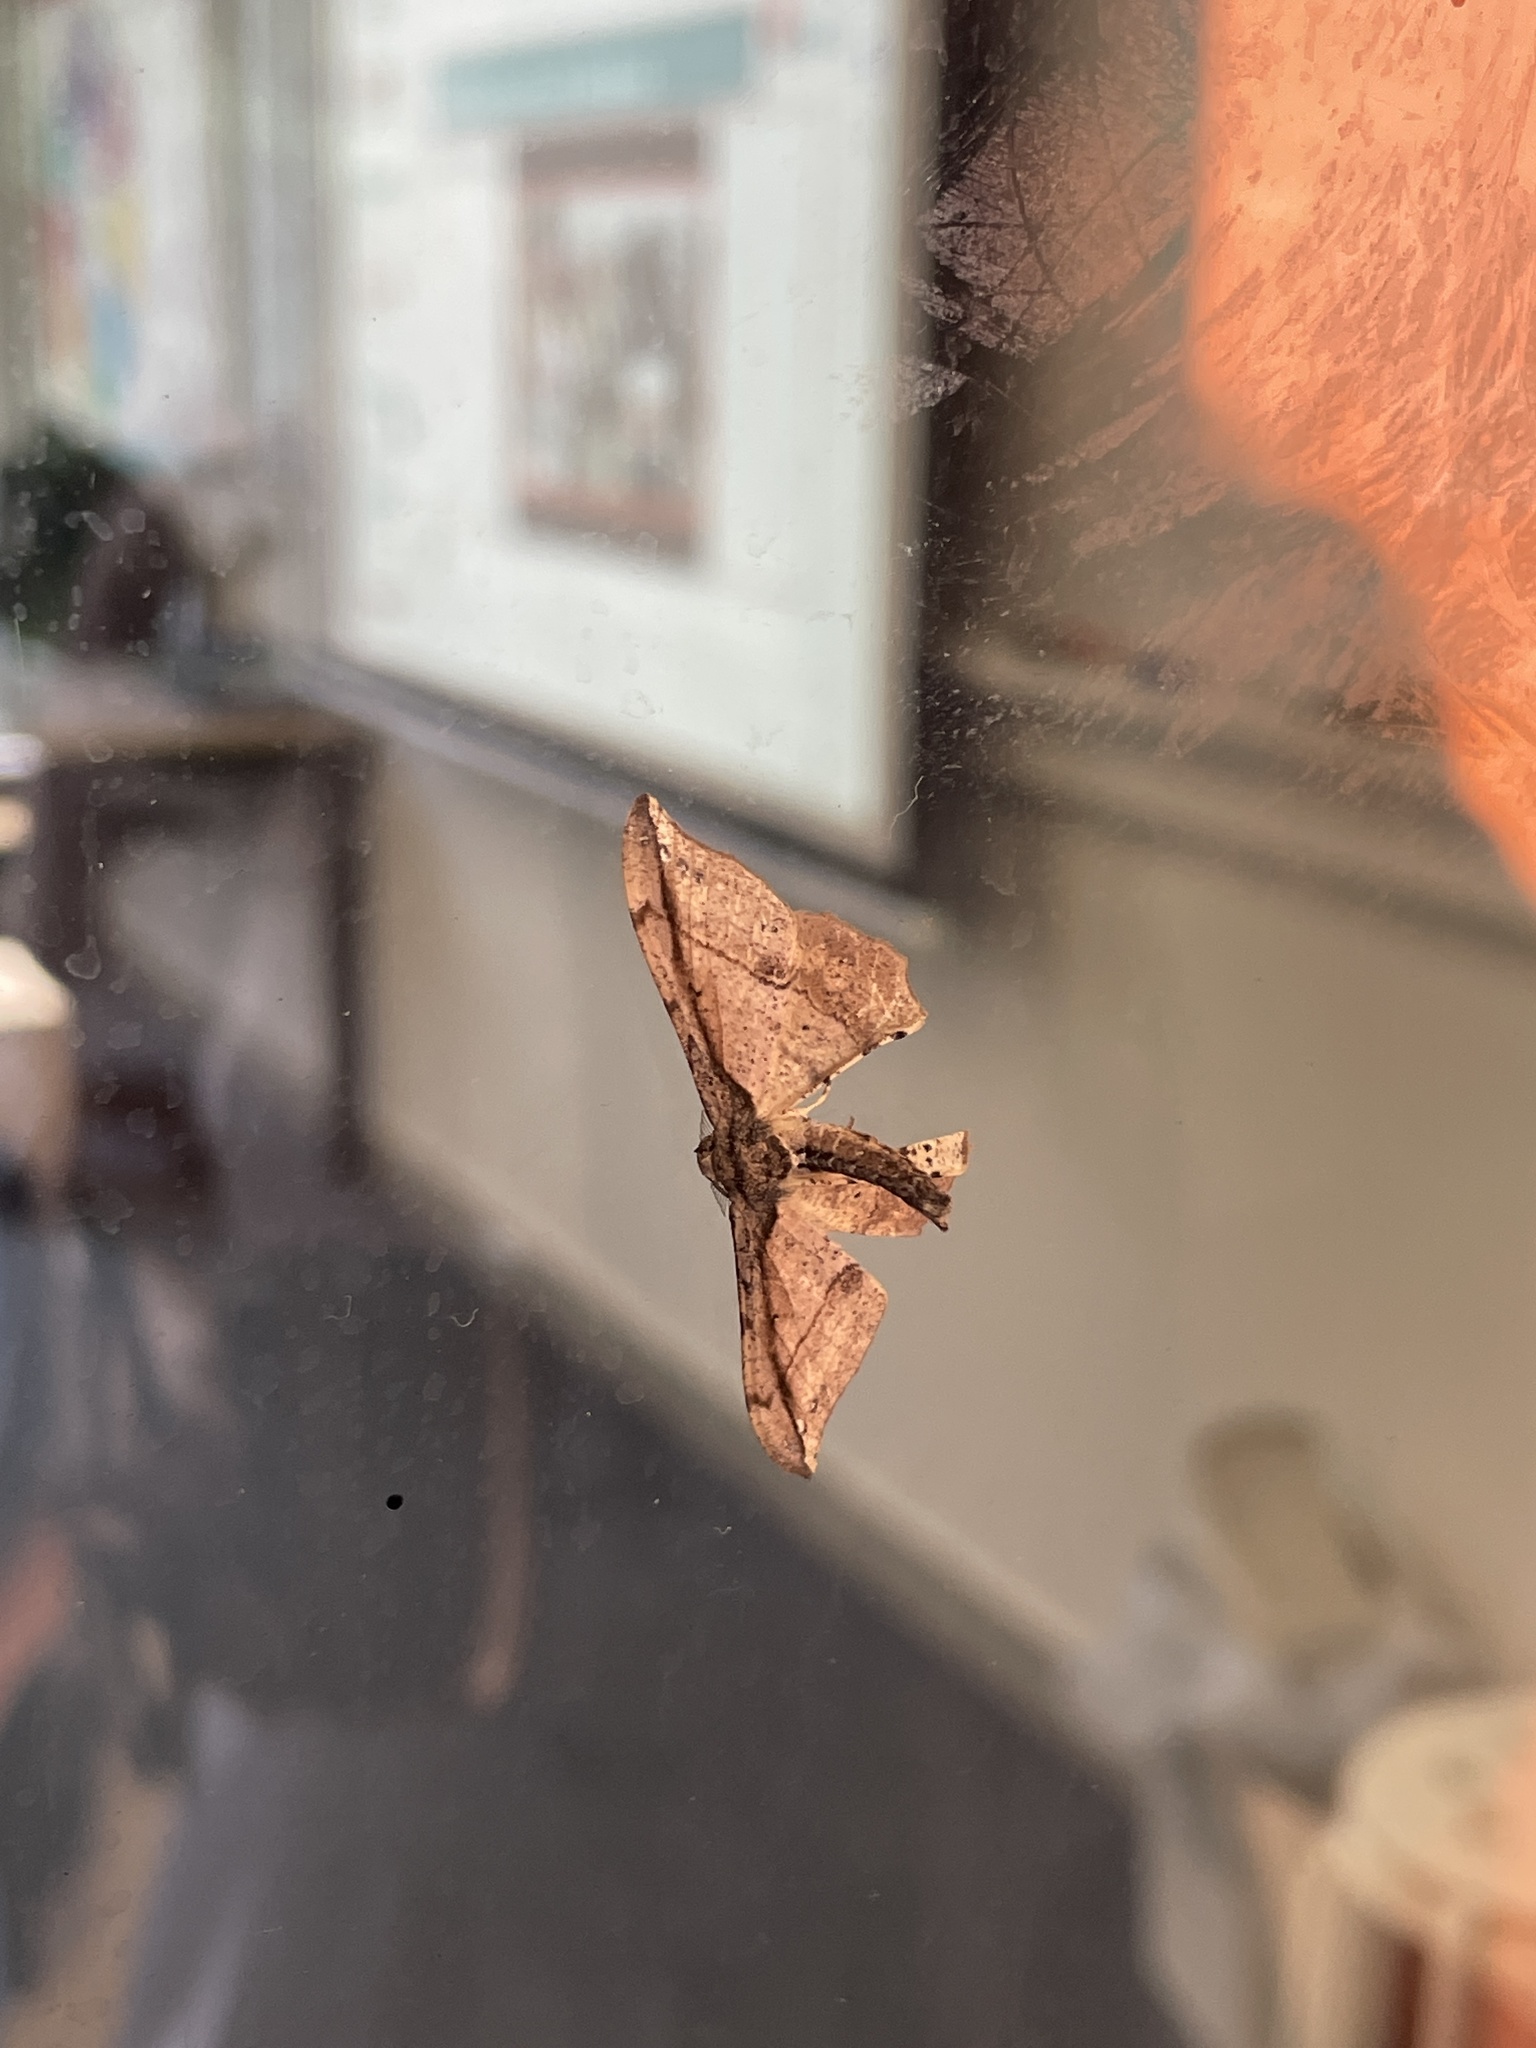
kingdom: Animalia
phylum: Arthropoda
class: Insecta
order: Lepidoptera
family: Geometridae
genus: Hyposidra
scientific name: Hyposidra infixaria
